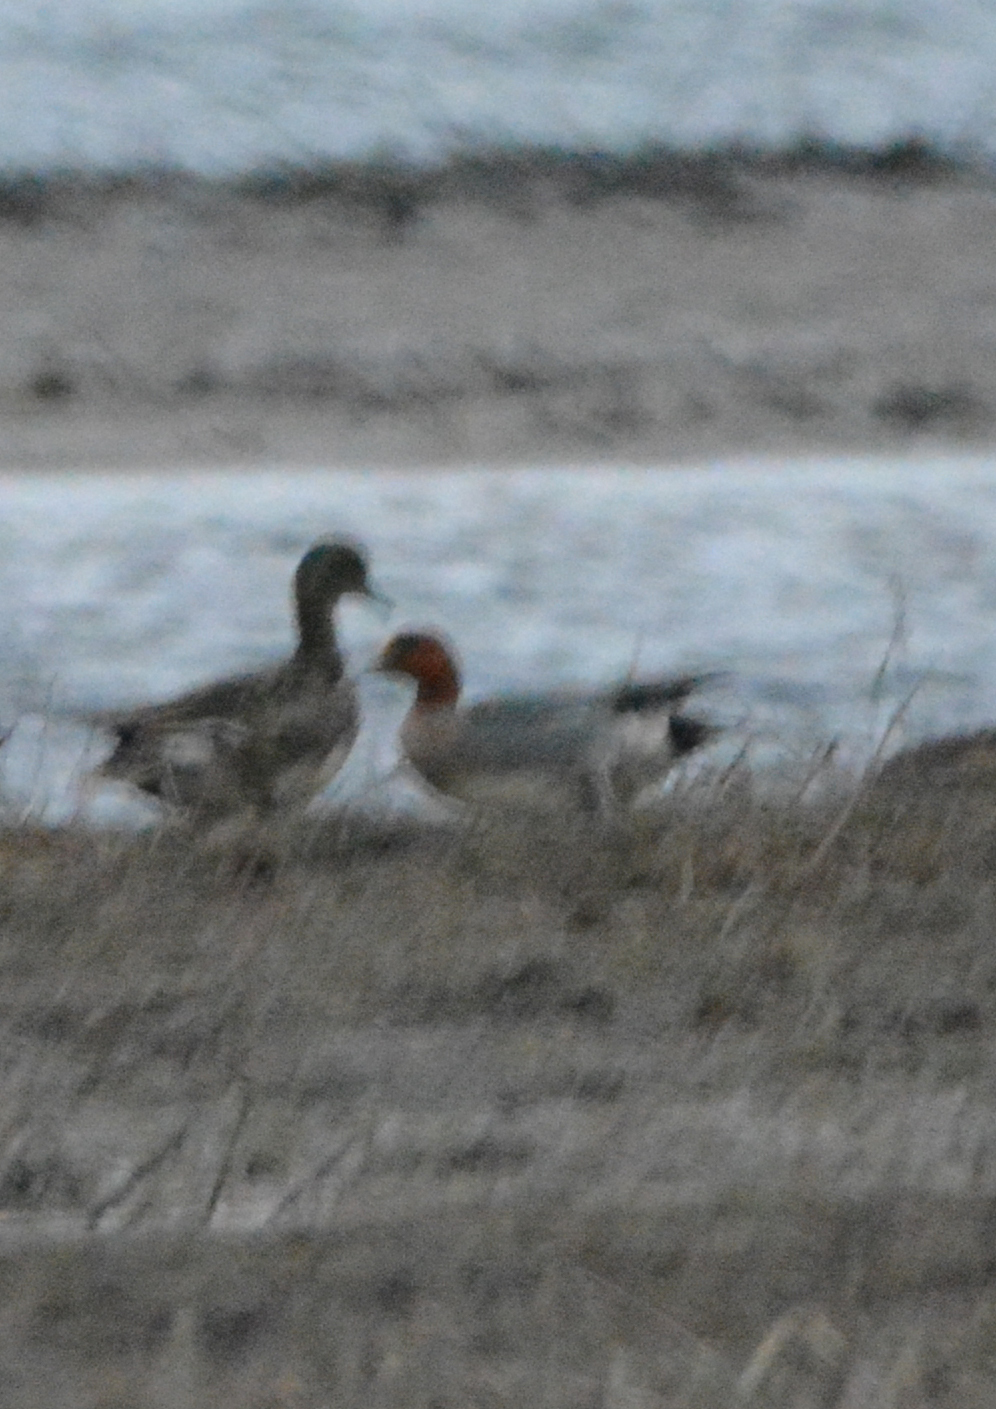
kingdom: Animalia
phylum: Chordata
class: Aves
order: Anseriformes
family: Anatidae
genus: Mareca
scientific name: Mareca penelope
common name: Eurasian wigeon
